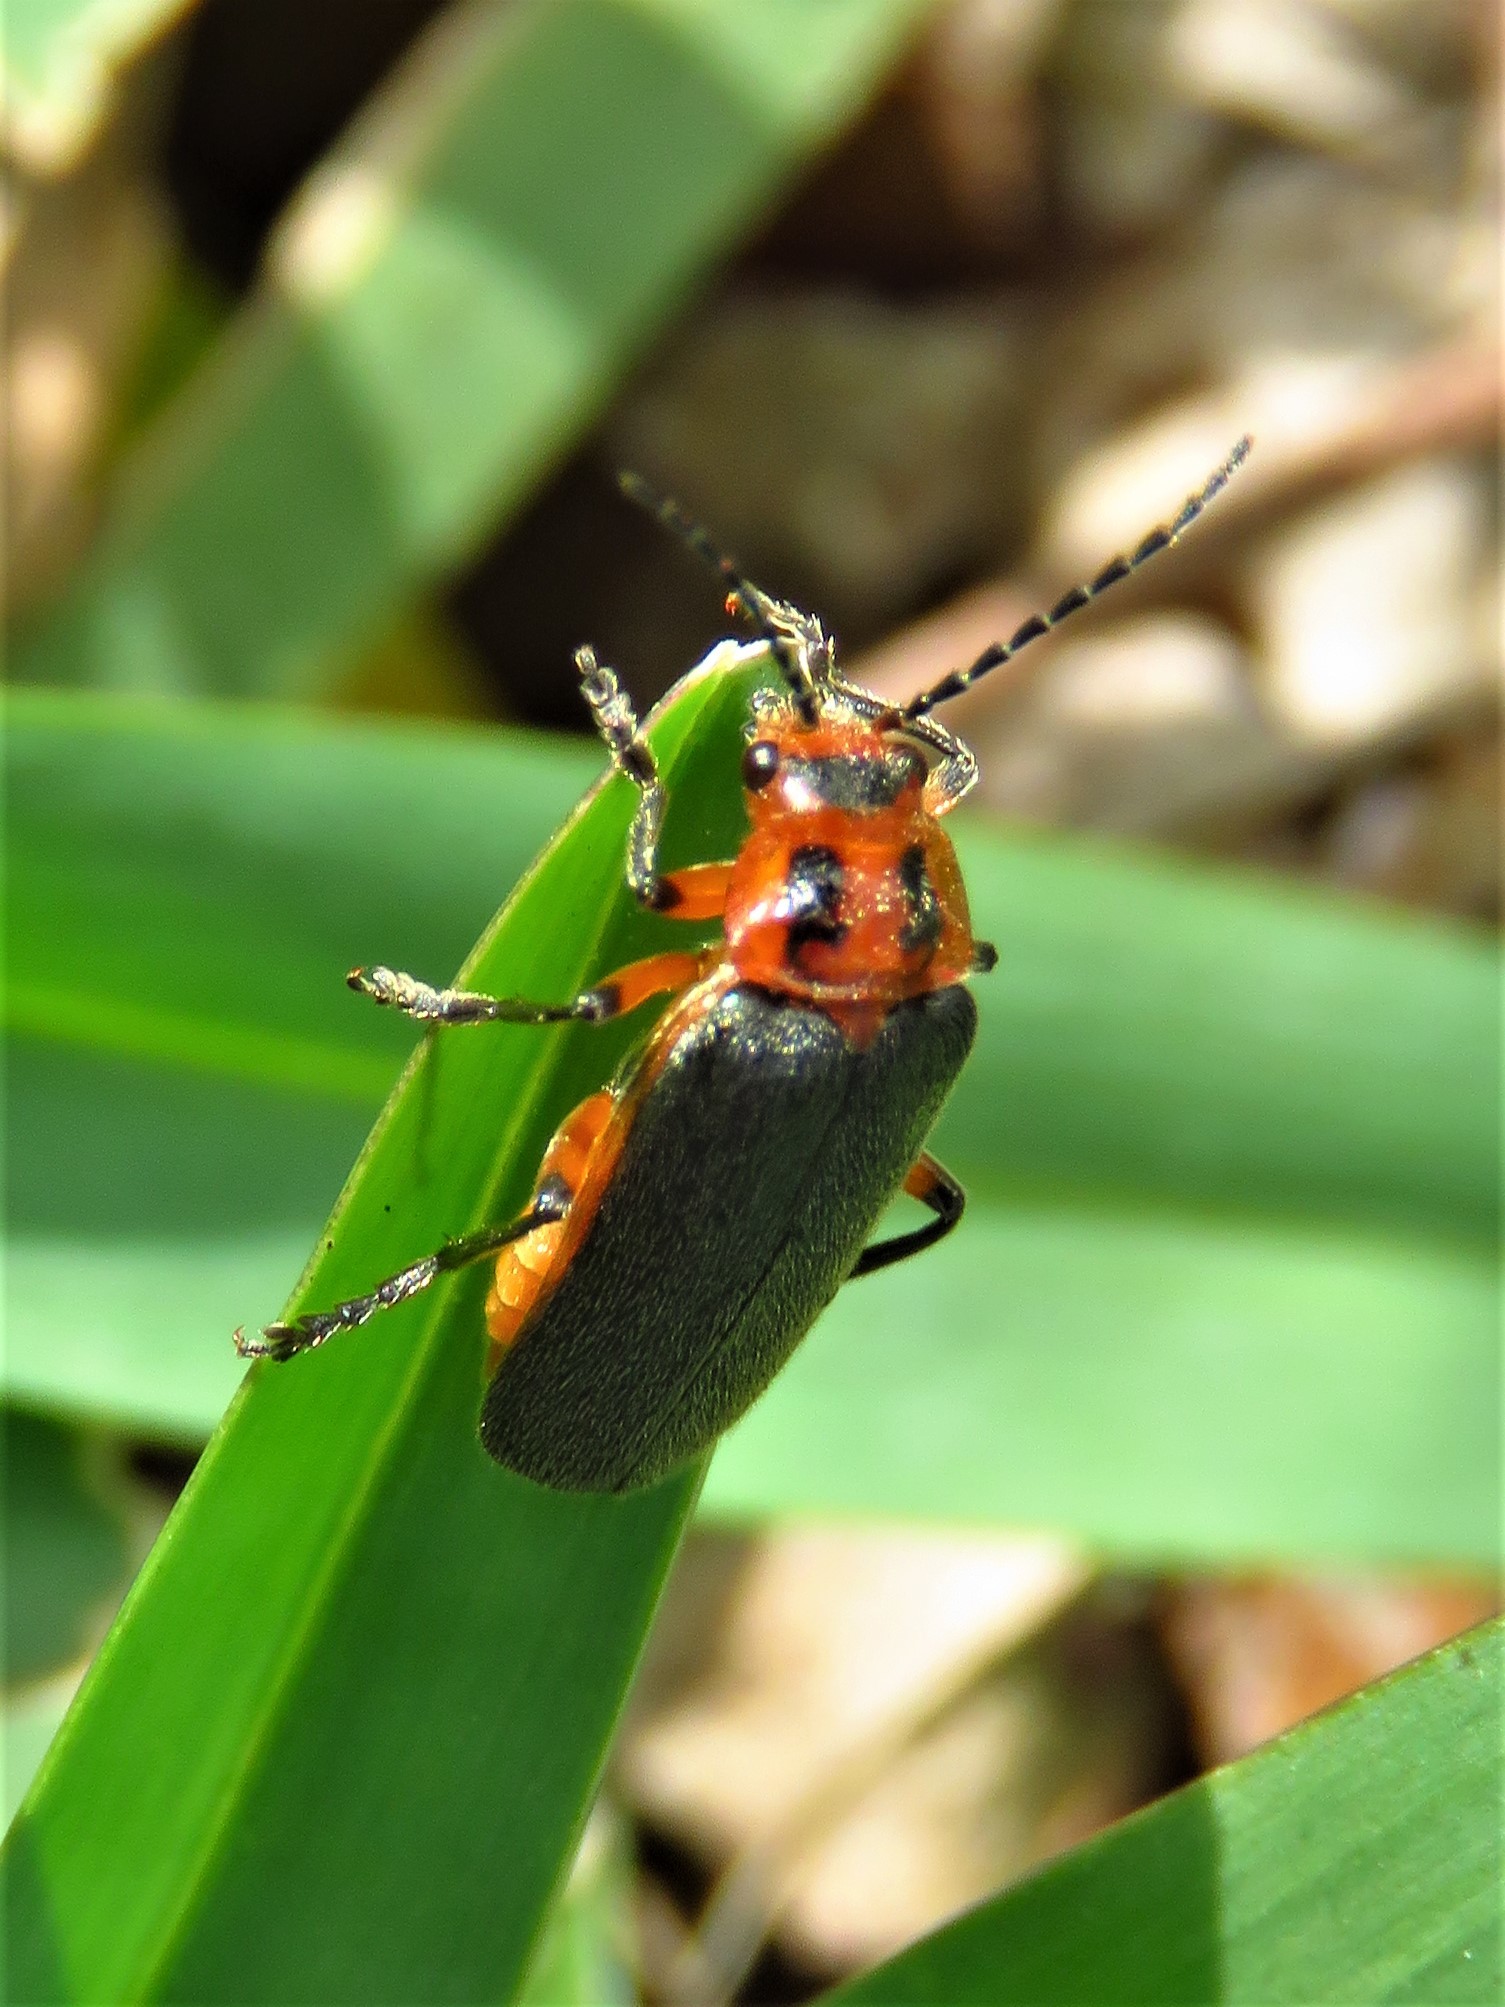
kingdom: Animalia
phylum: Arthropoda
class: Insecta
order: Coleoptera
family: Cantharidae
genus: Atalantycha
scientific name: Atalantycha bilineata
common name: Two-lined leatherwing
